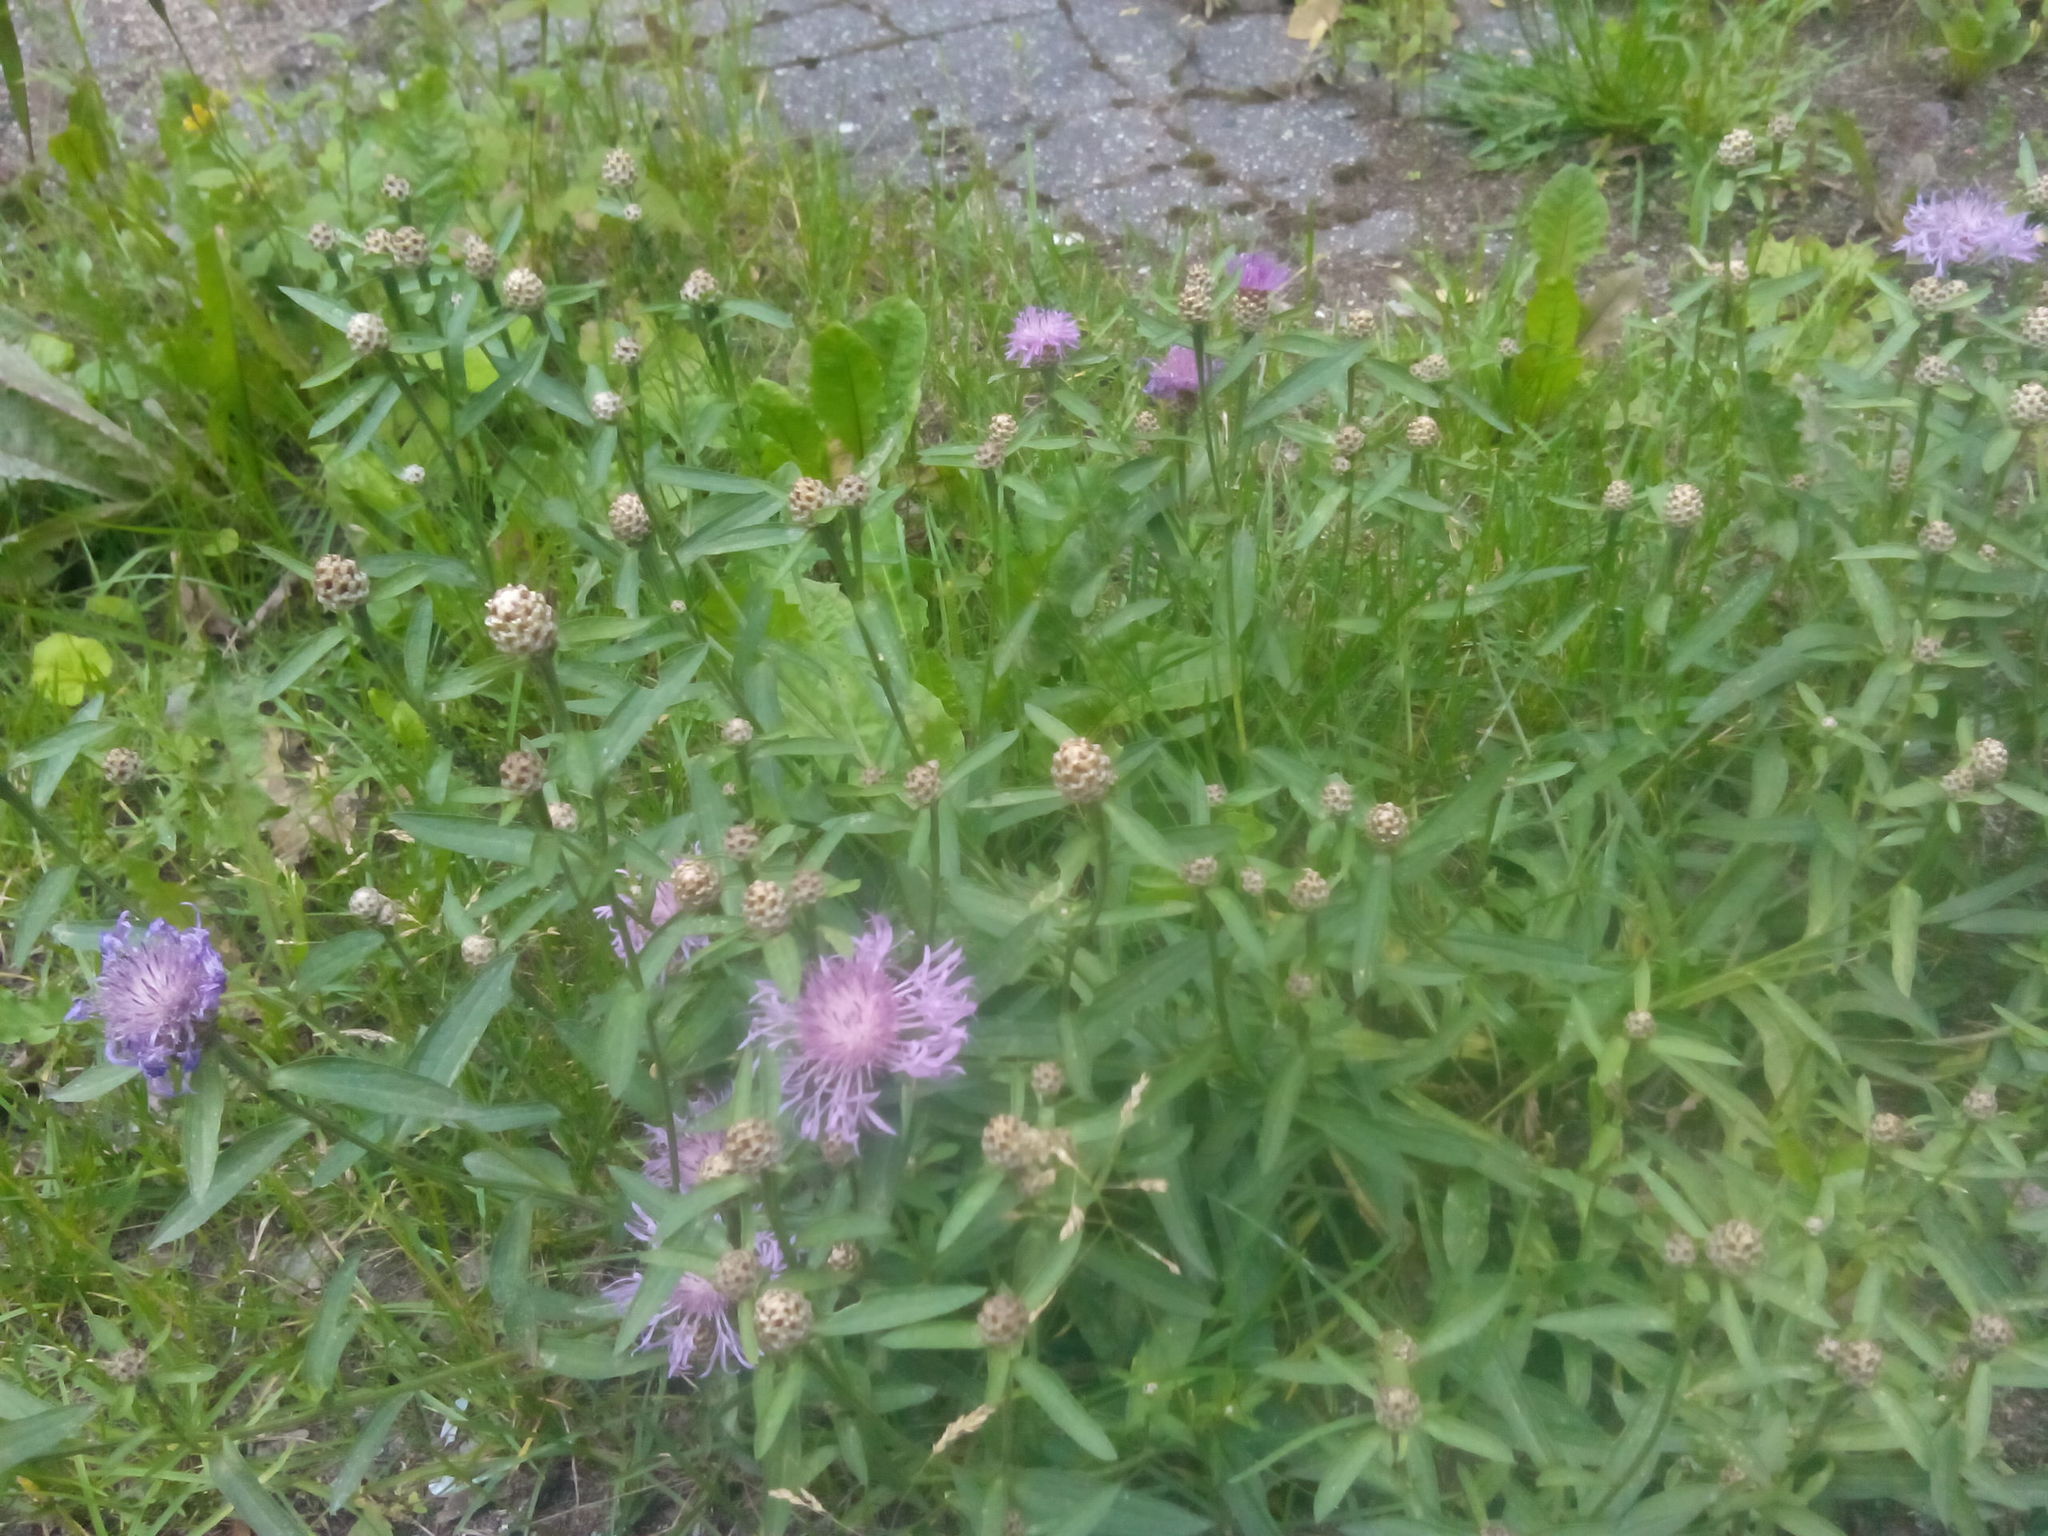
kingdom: Plantae
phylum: Tracheophyta
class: Magnoliopsida
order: Asterales
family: Asteraceae
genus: Centaurea
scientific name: Centaurea jacea
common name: Brown knapweed
